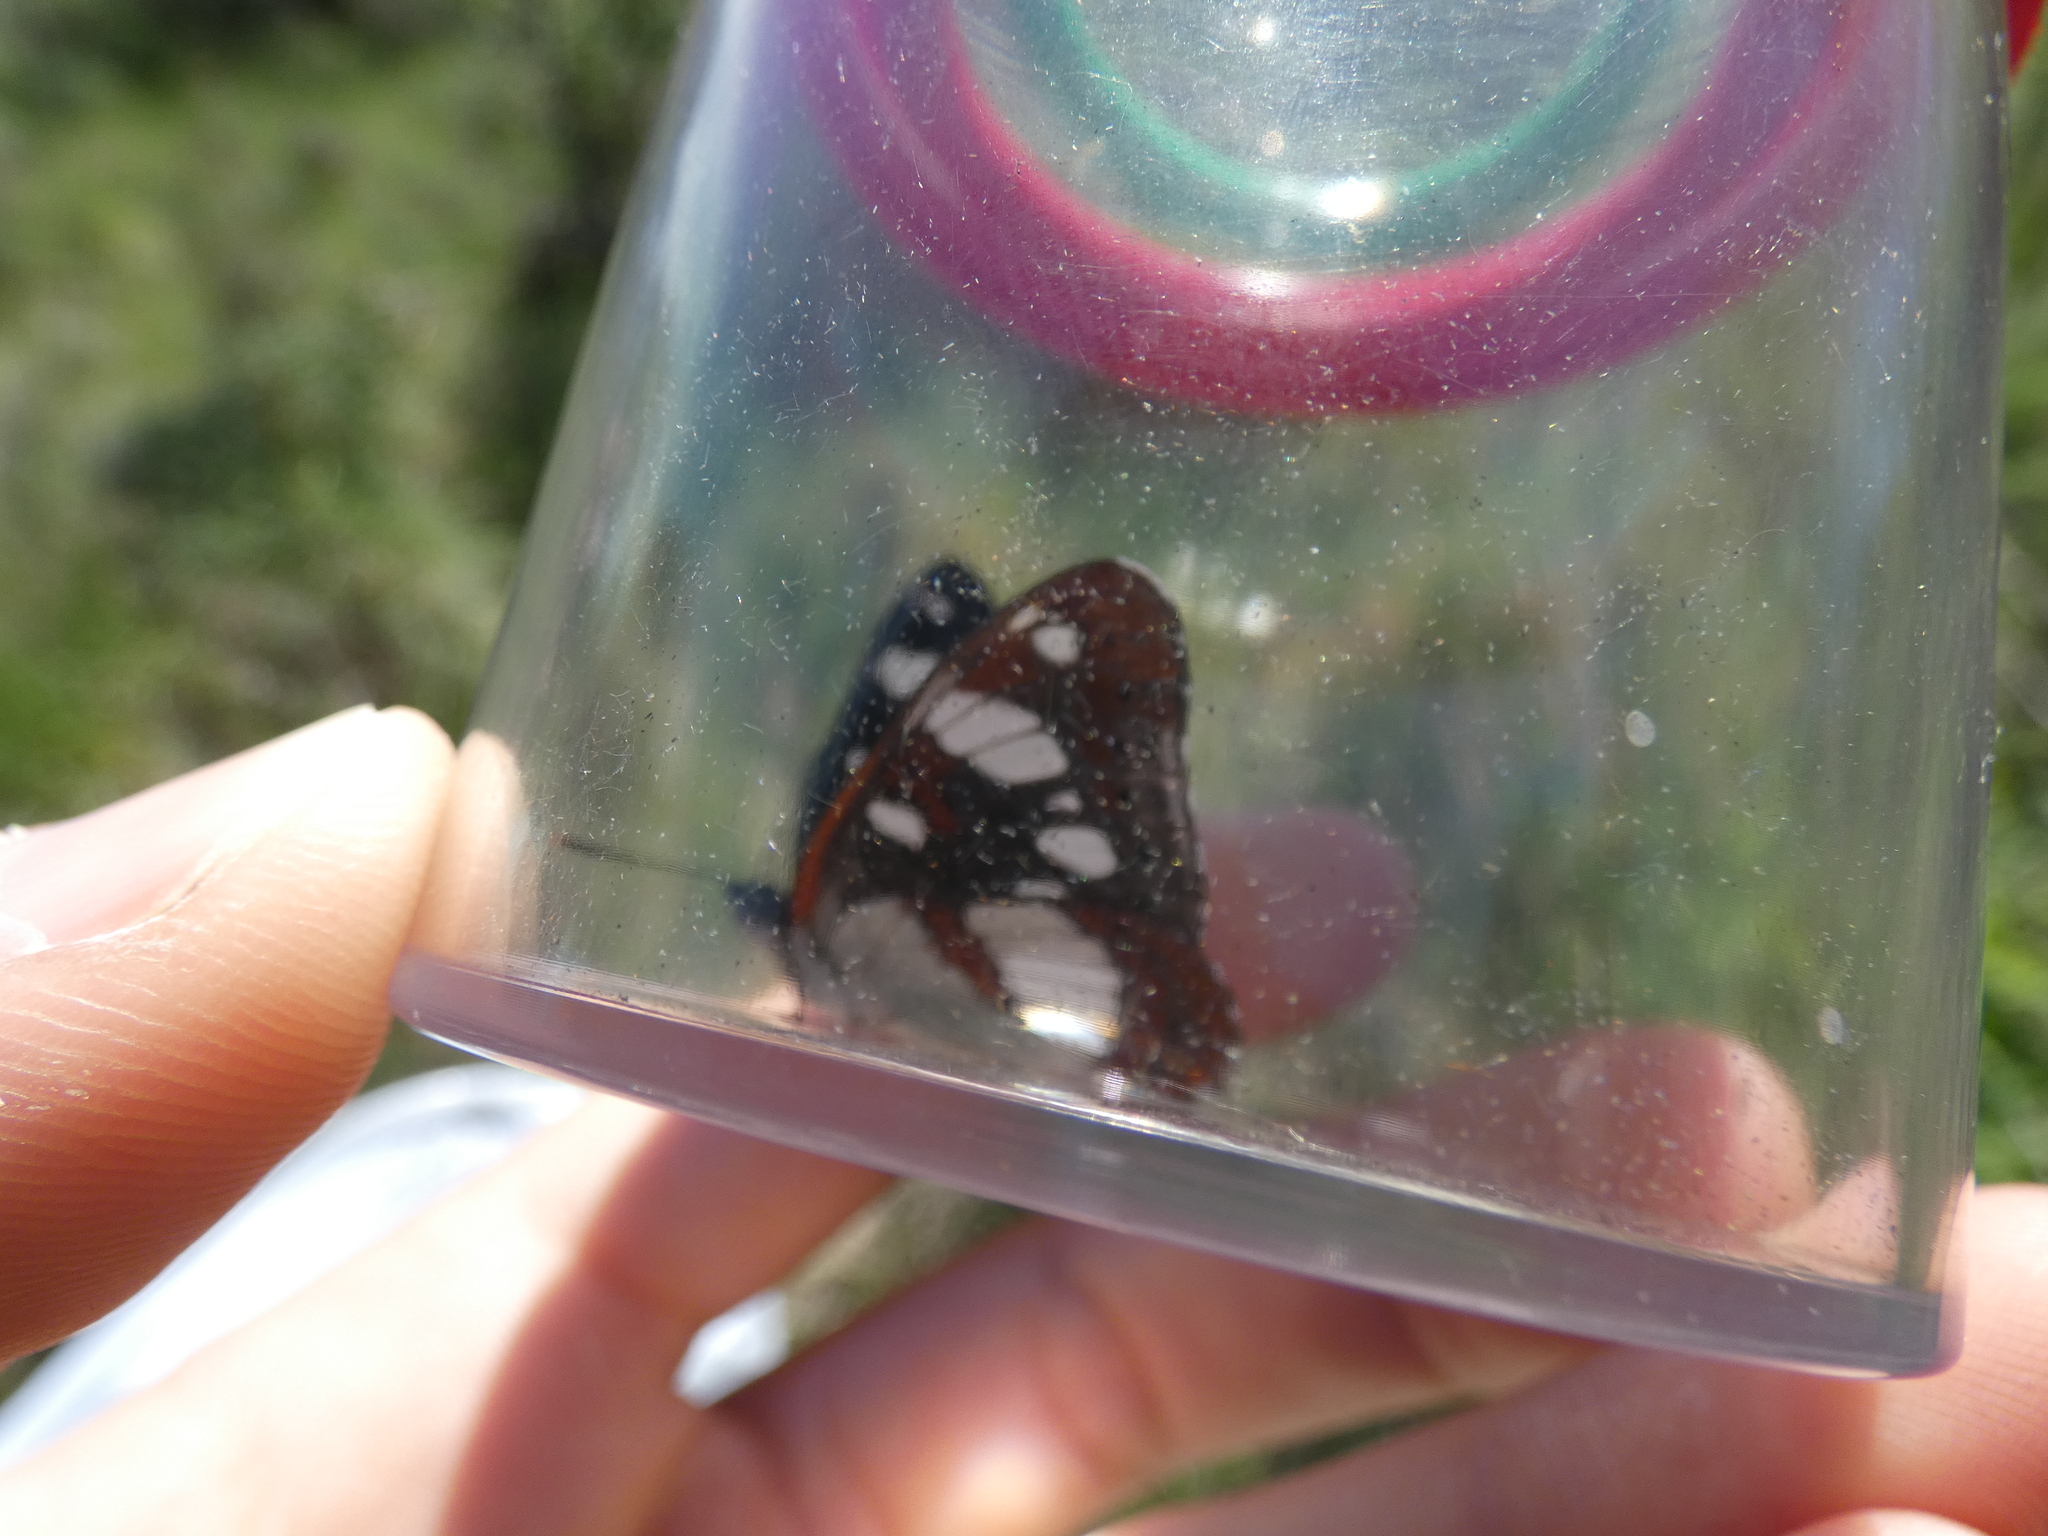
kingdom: Animalia
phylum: Arthropoda
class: Insecta
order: Lepidoptera
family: Nymphalidae
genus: Limenitis
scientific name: Limenitis reducta
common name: Southern white admiral
